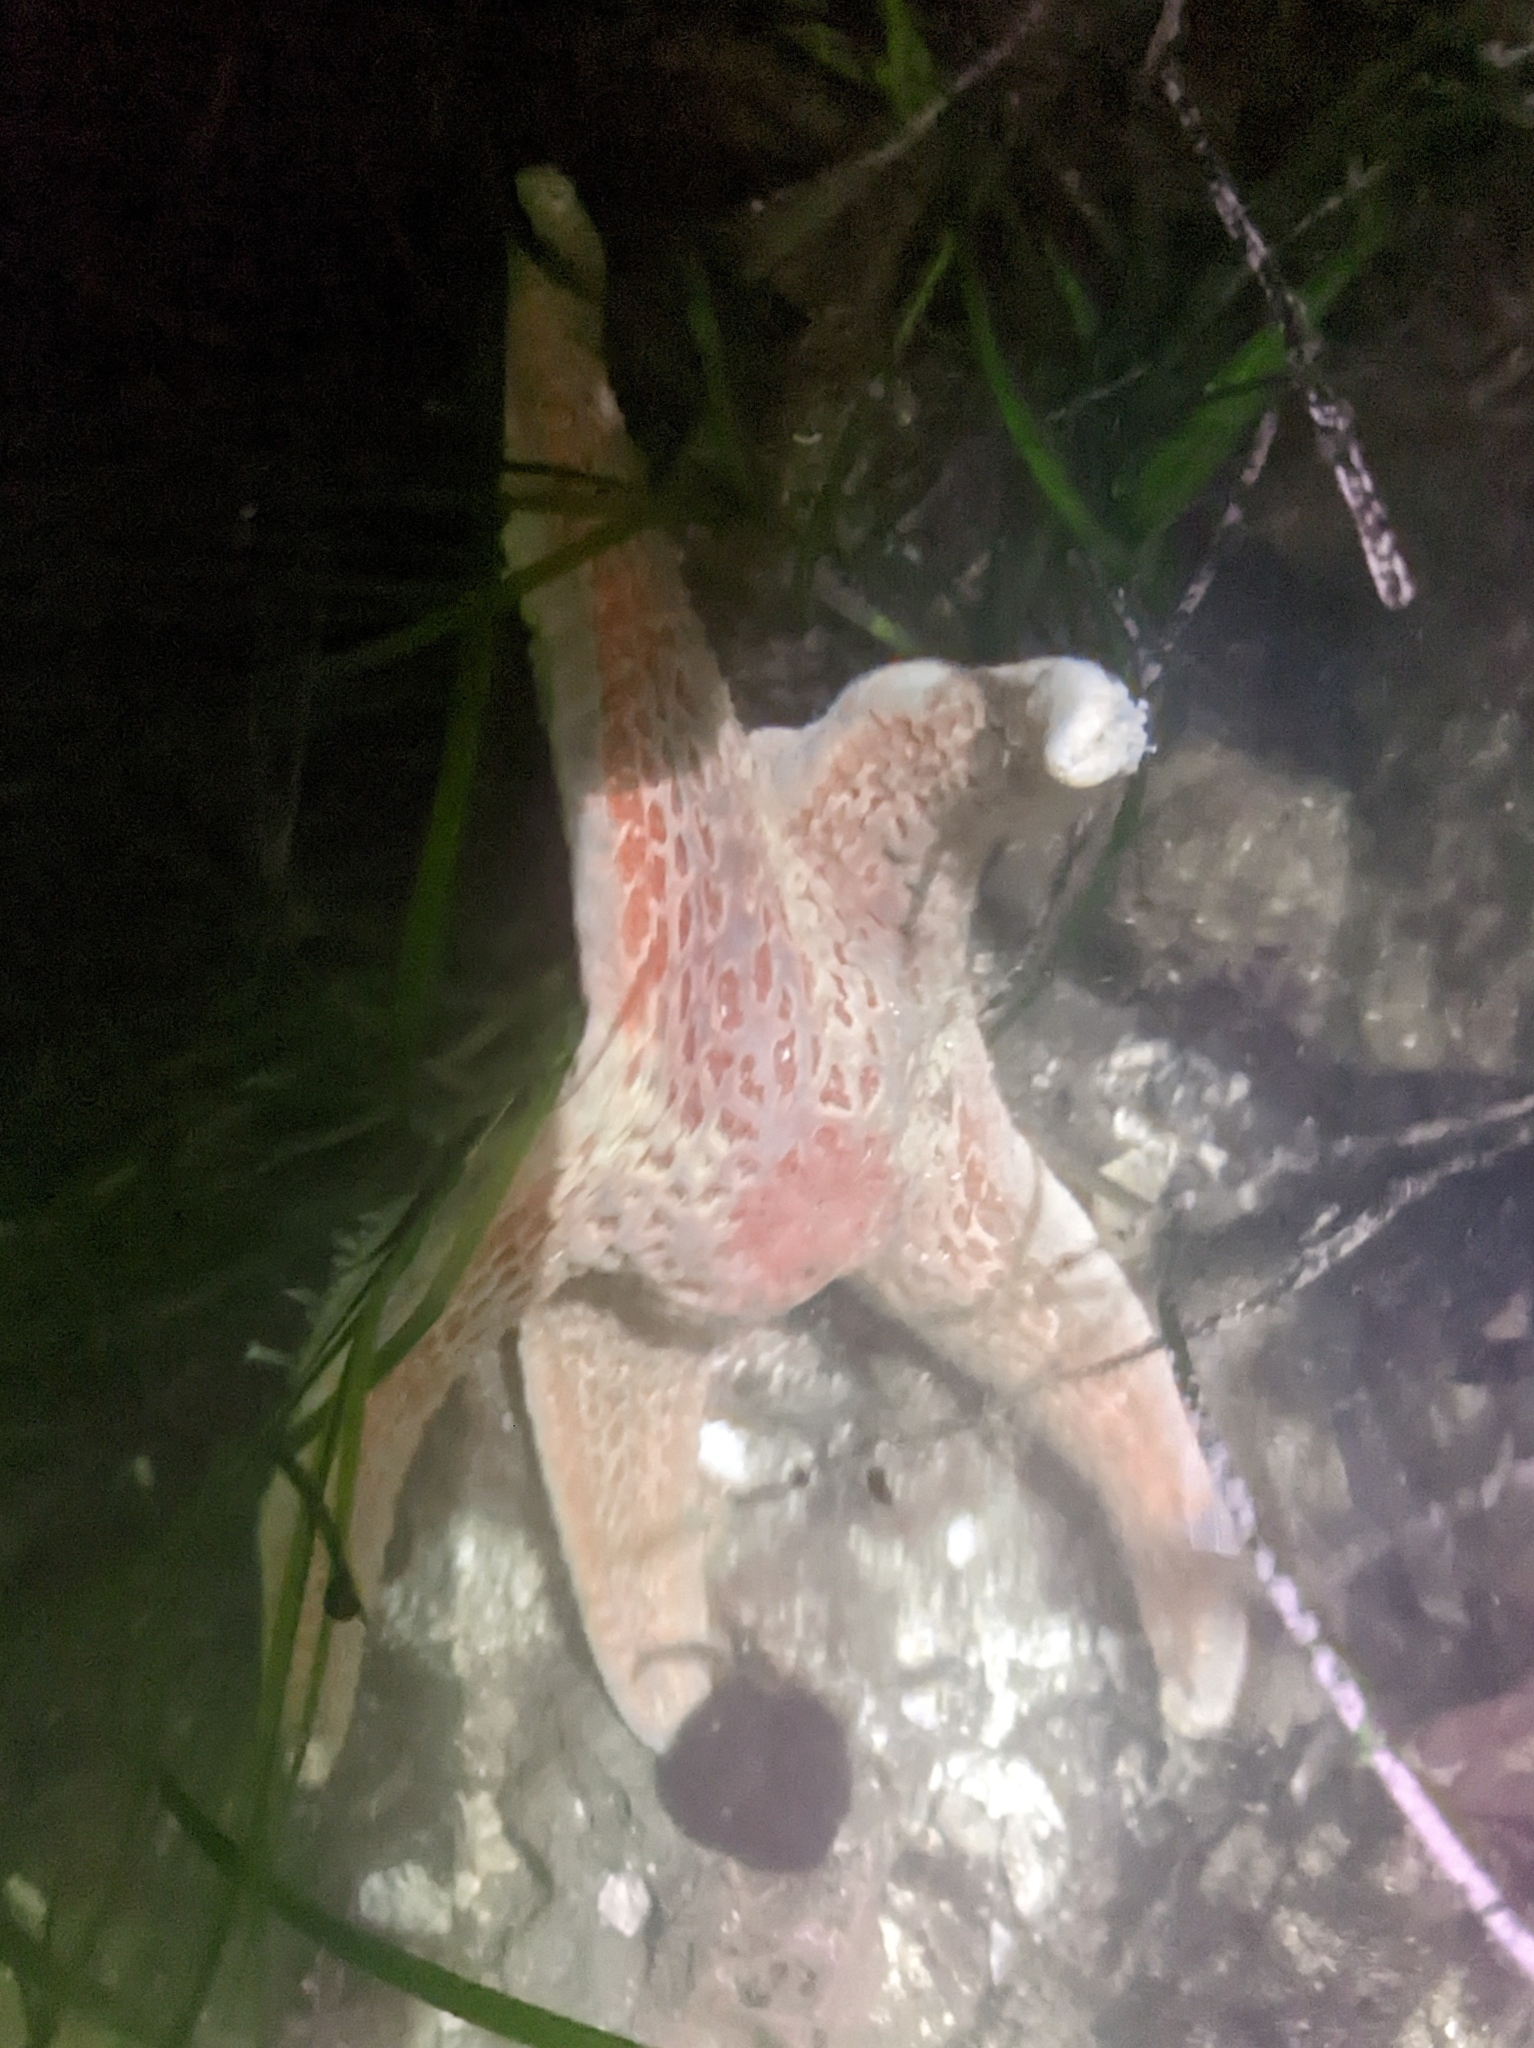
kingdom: Animalia
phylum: Echinodermata
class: Asteroidea
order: Valvatida
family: Asteropseidae
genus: Dermasterias
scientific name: Dermasterias imbricata
